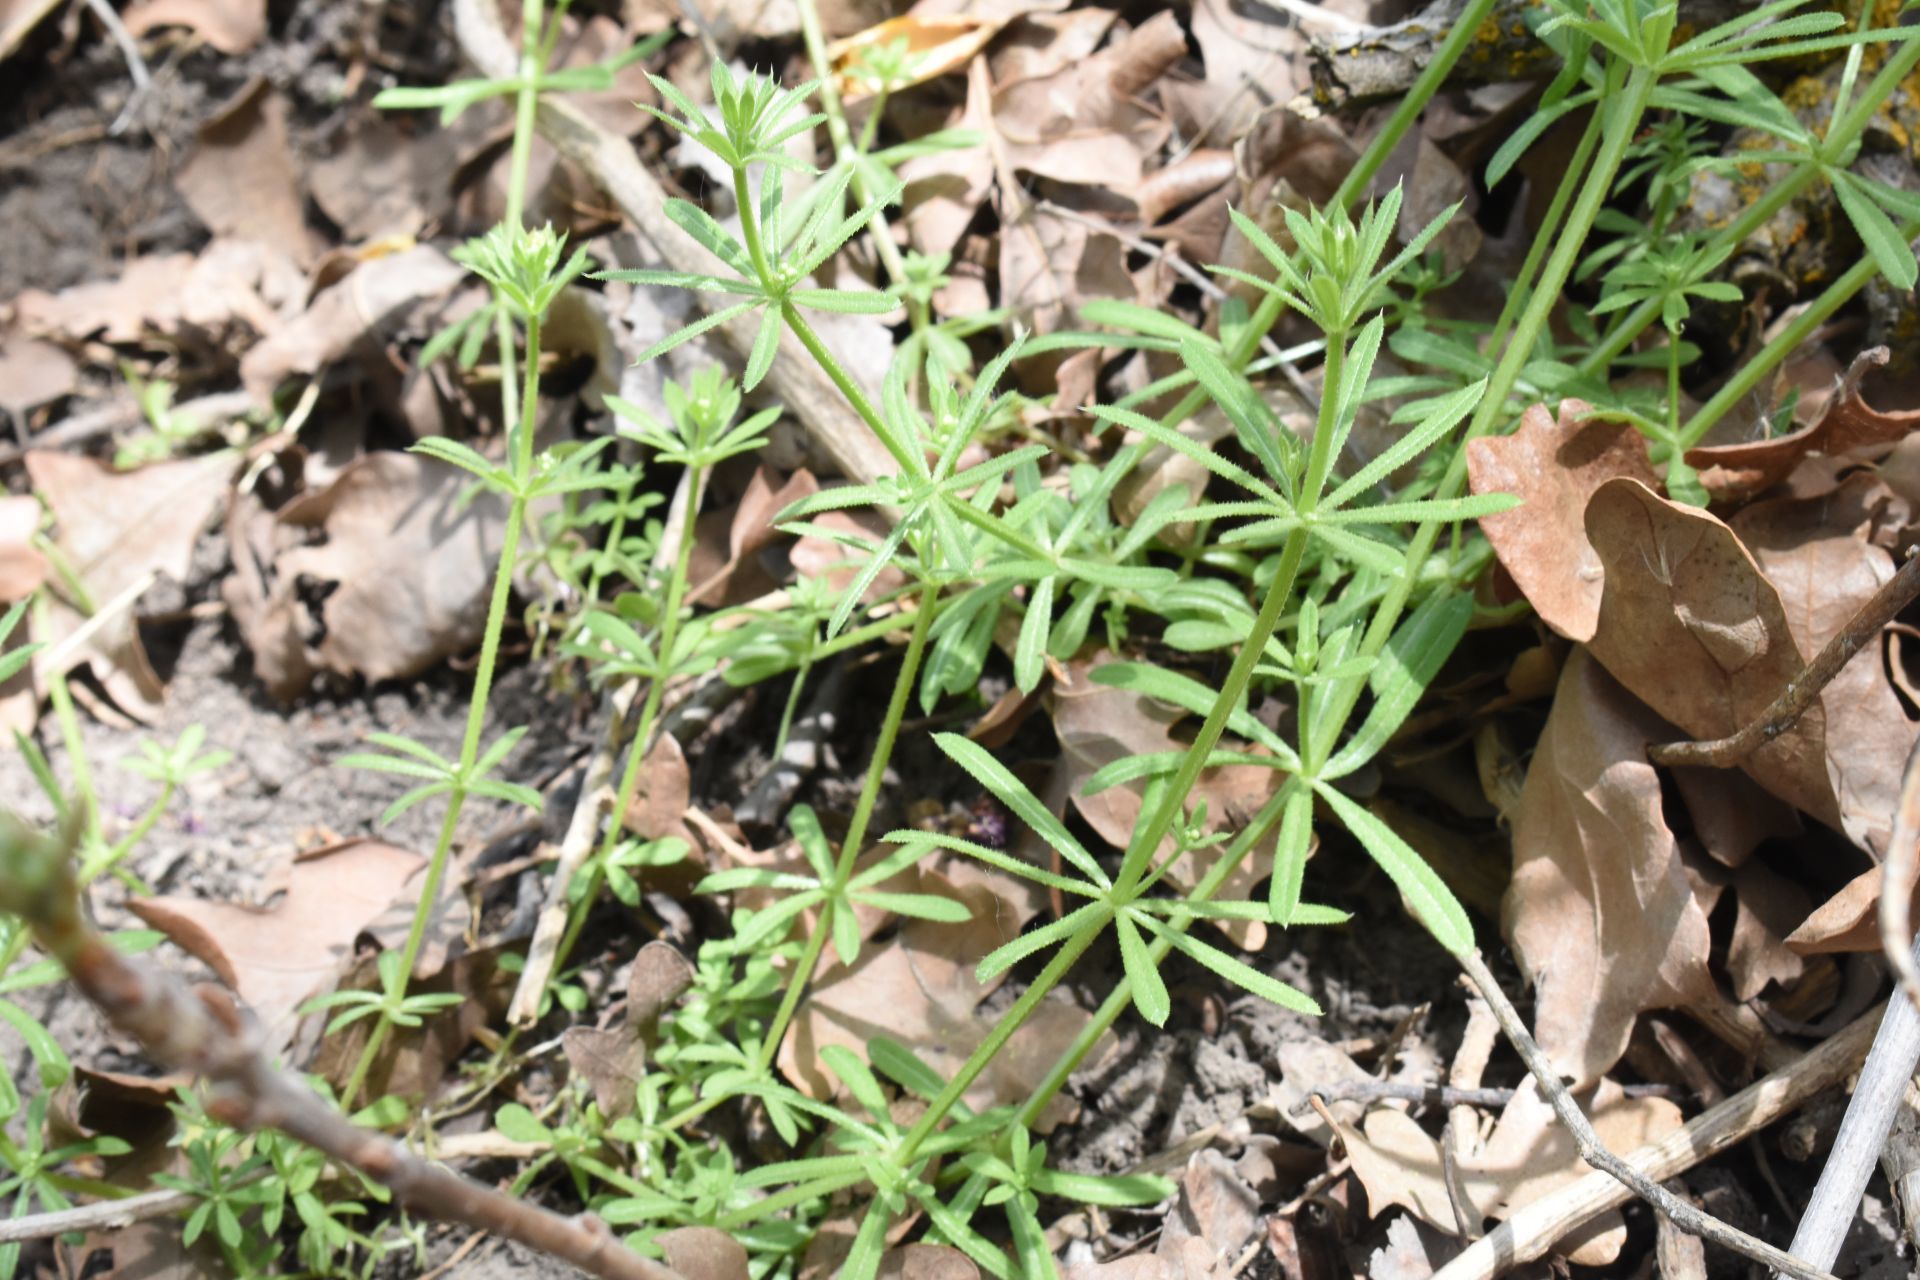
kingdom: Plantae
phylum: Tracheophyta
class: Magnoliopsida
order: Gentianales
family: Rubiaceae
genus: Galium
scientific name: Galium aparine
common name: Cleavers
